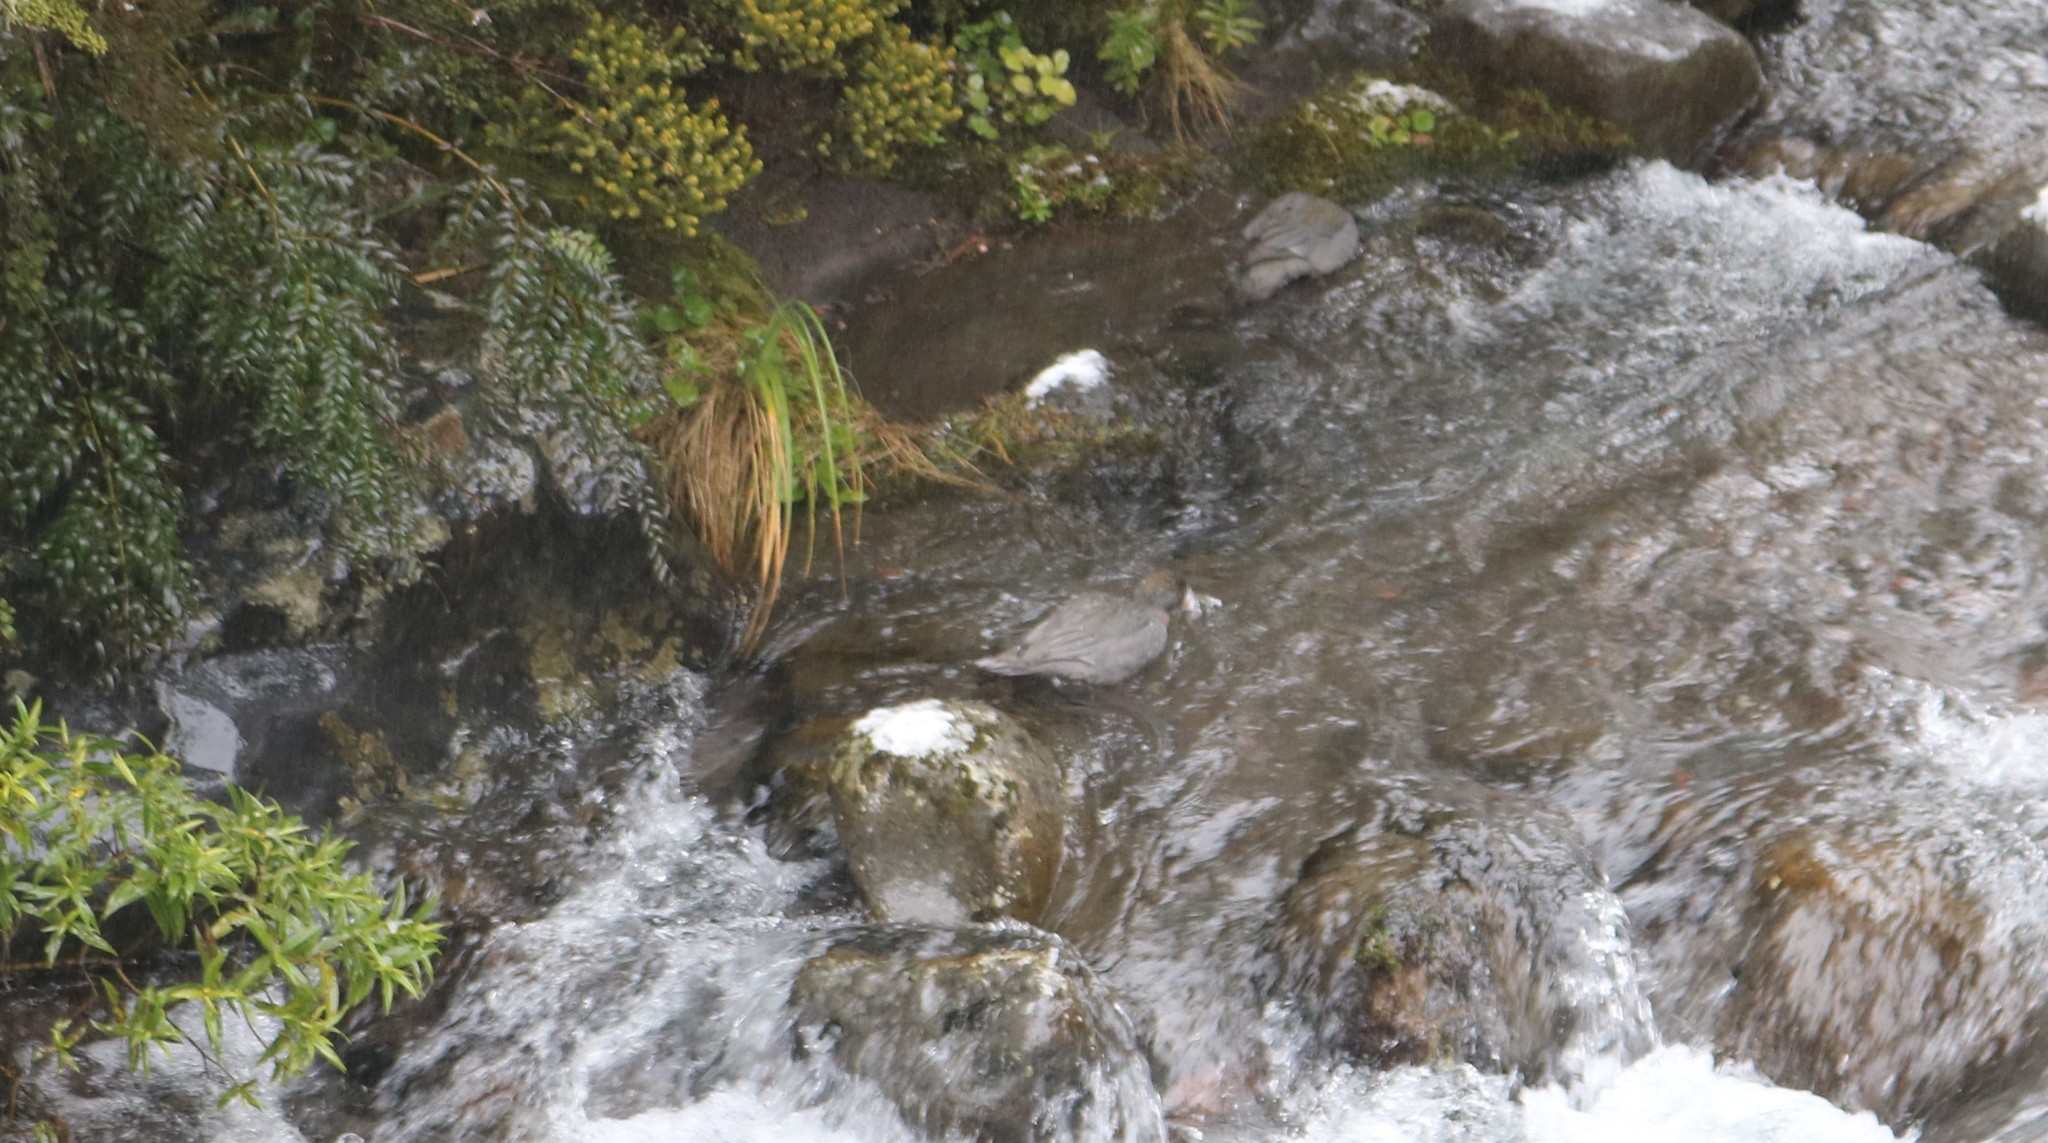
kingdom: Animalia
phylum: Chordata
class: Aves
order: Anseriformes
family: Anatidae
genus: Hymenolaimus
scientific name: Hymenolaimus malacorhynchos
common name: Blue duck
